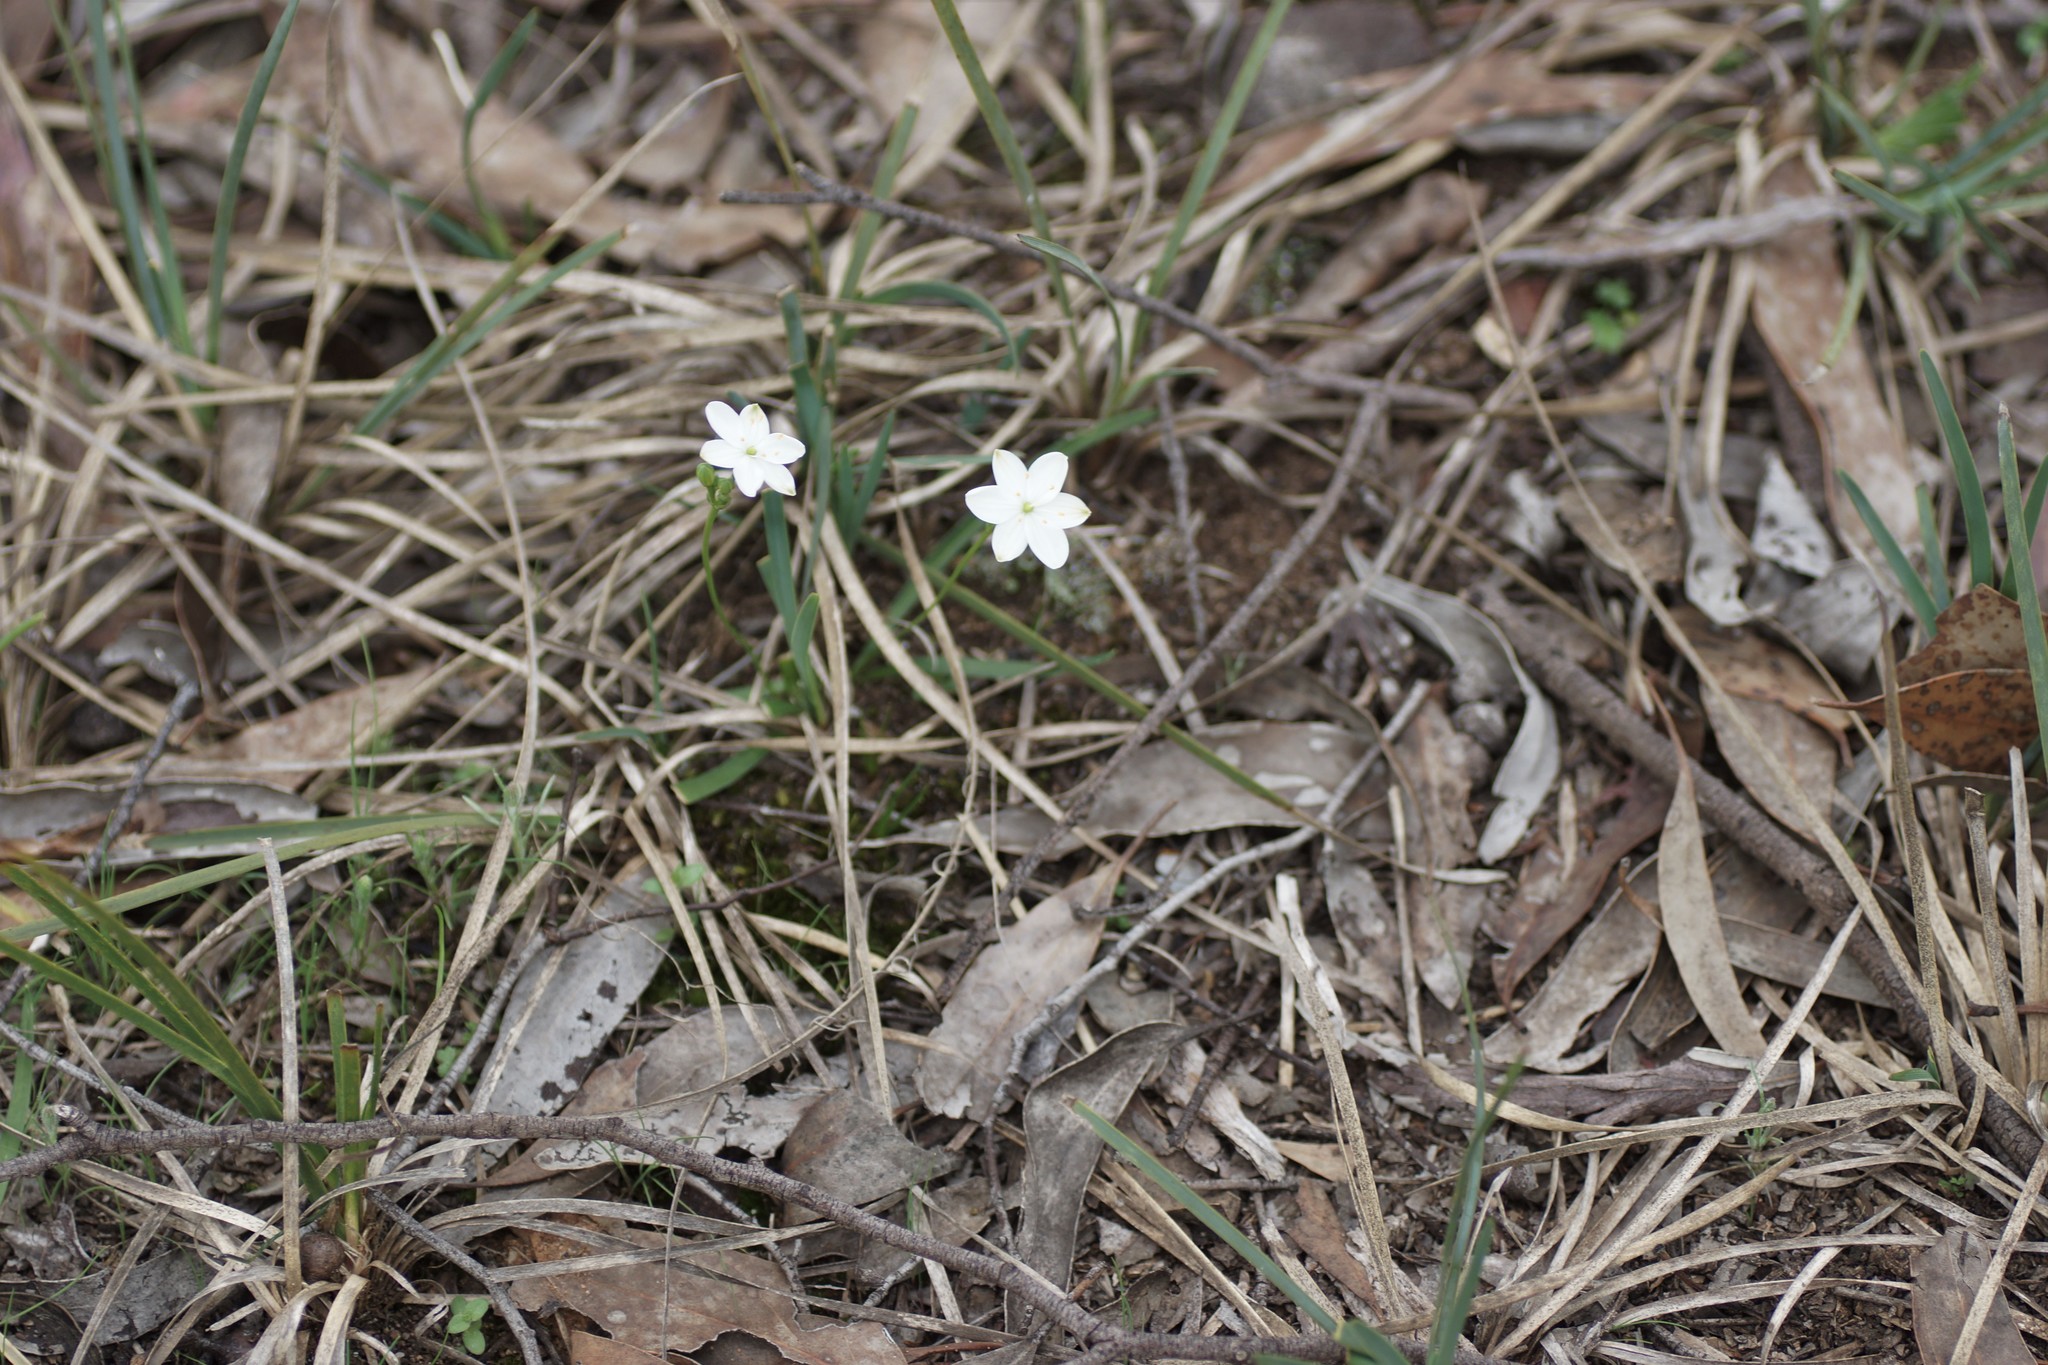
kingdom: Plantae
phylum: Tracheophyta
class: Liliopsida
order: Asparagales
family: Asphodelaceae
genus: Chamaescilla
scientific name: Chamaescilla corymbosa
